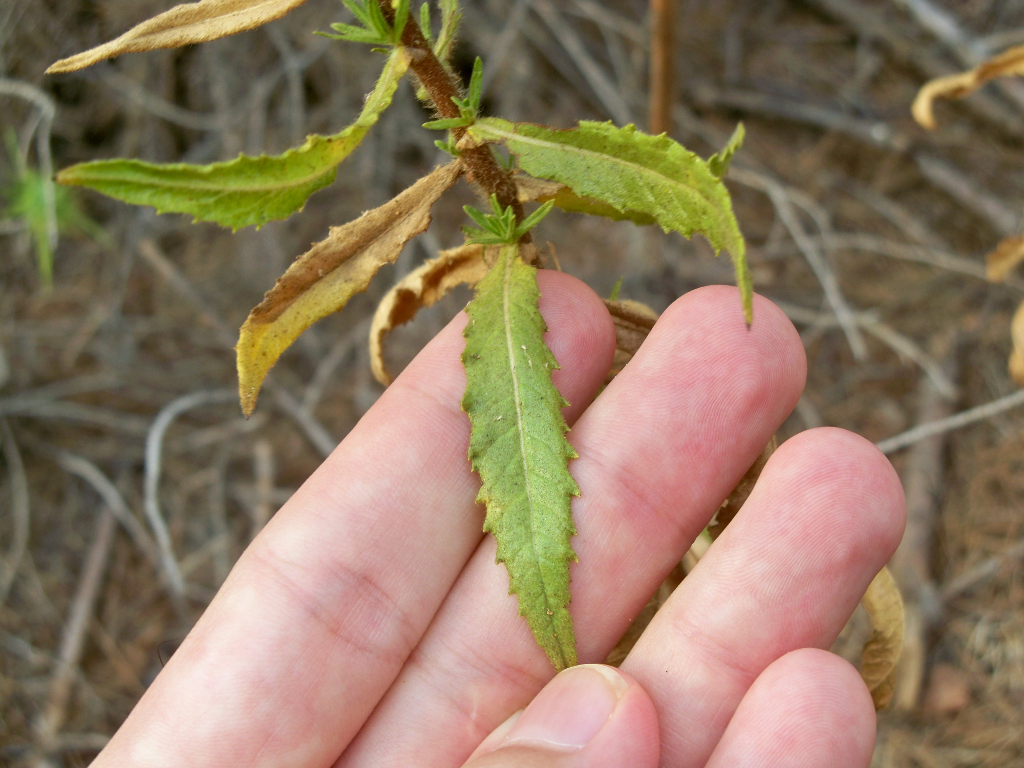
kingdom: Plantae
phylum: Tracheophyta
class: Magnoliopsida
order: Asterales
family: Asteraceae
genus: Dittrichia
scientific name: Dittrichia viscosa
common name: Woody fleabane
